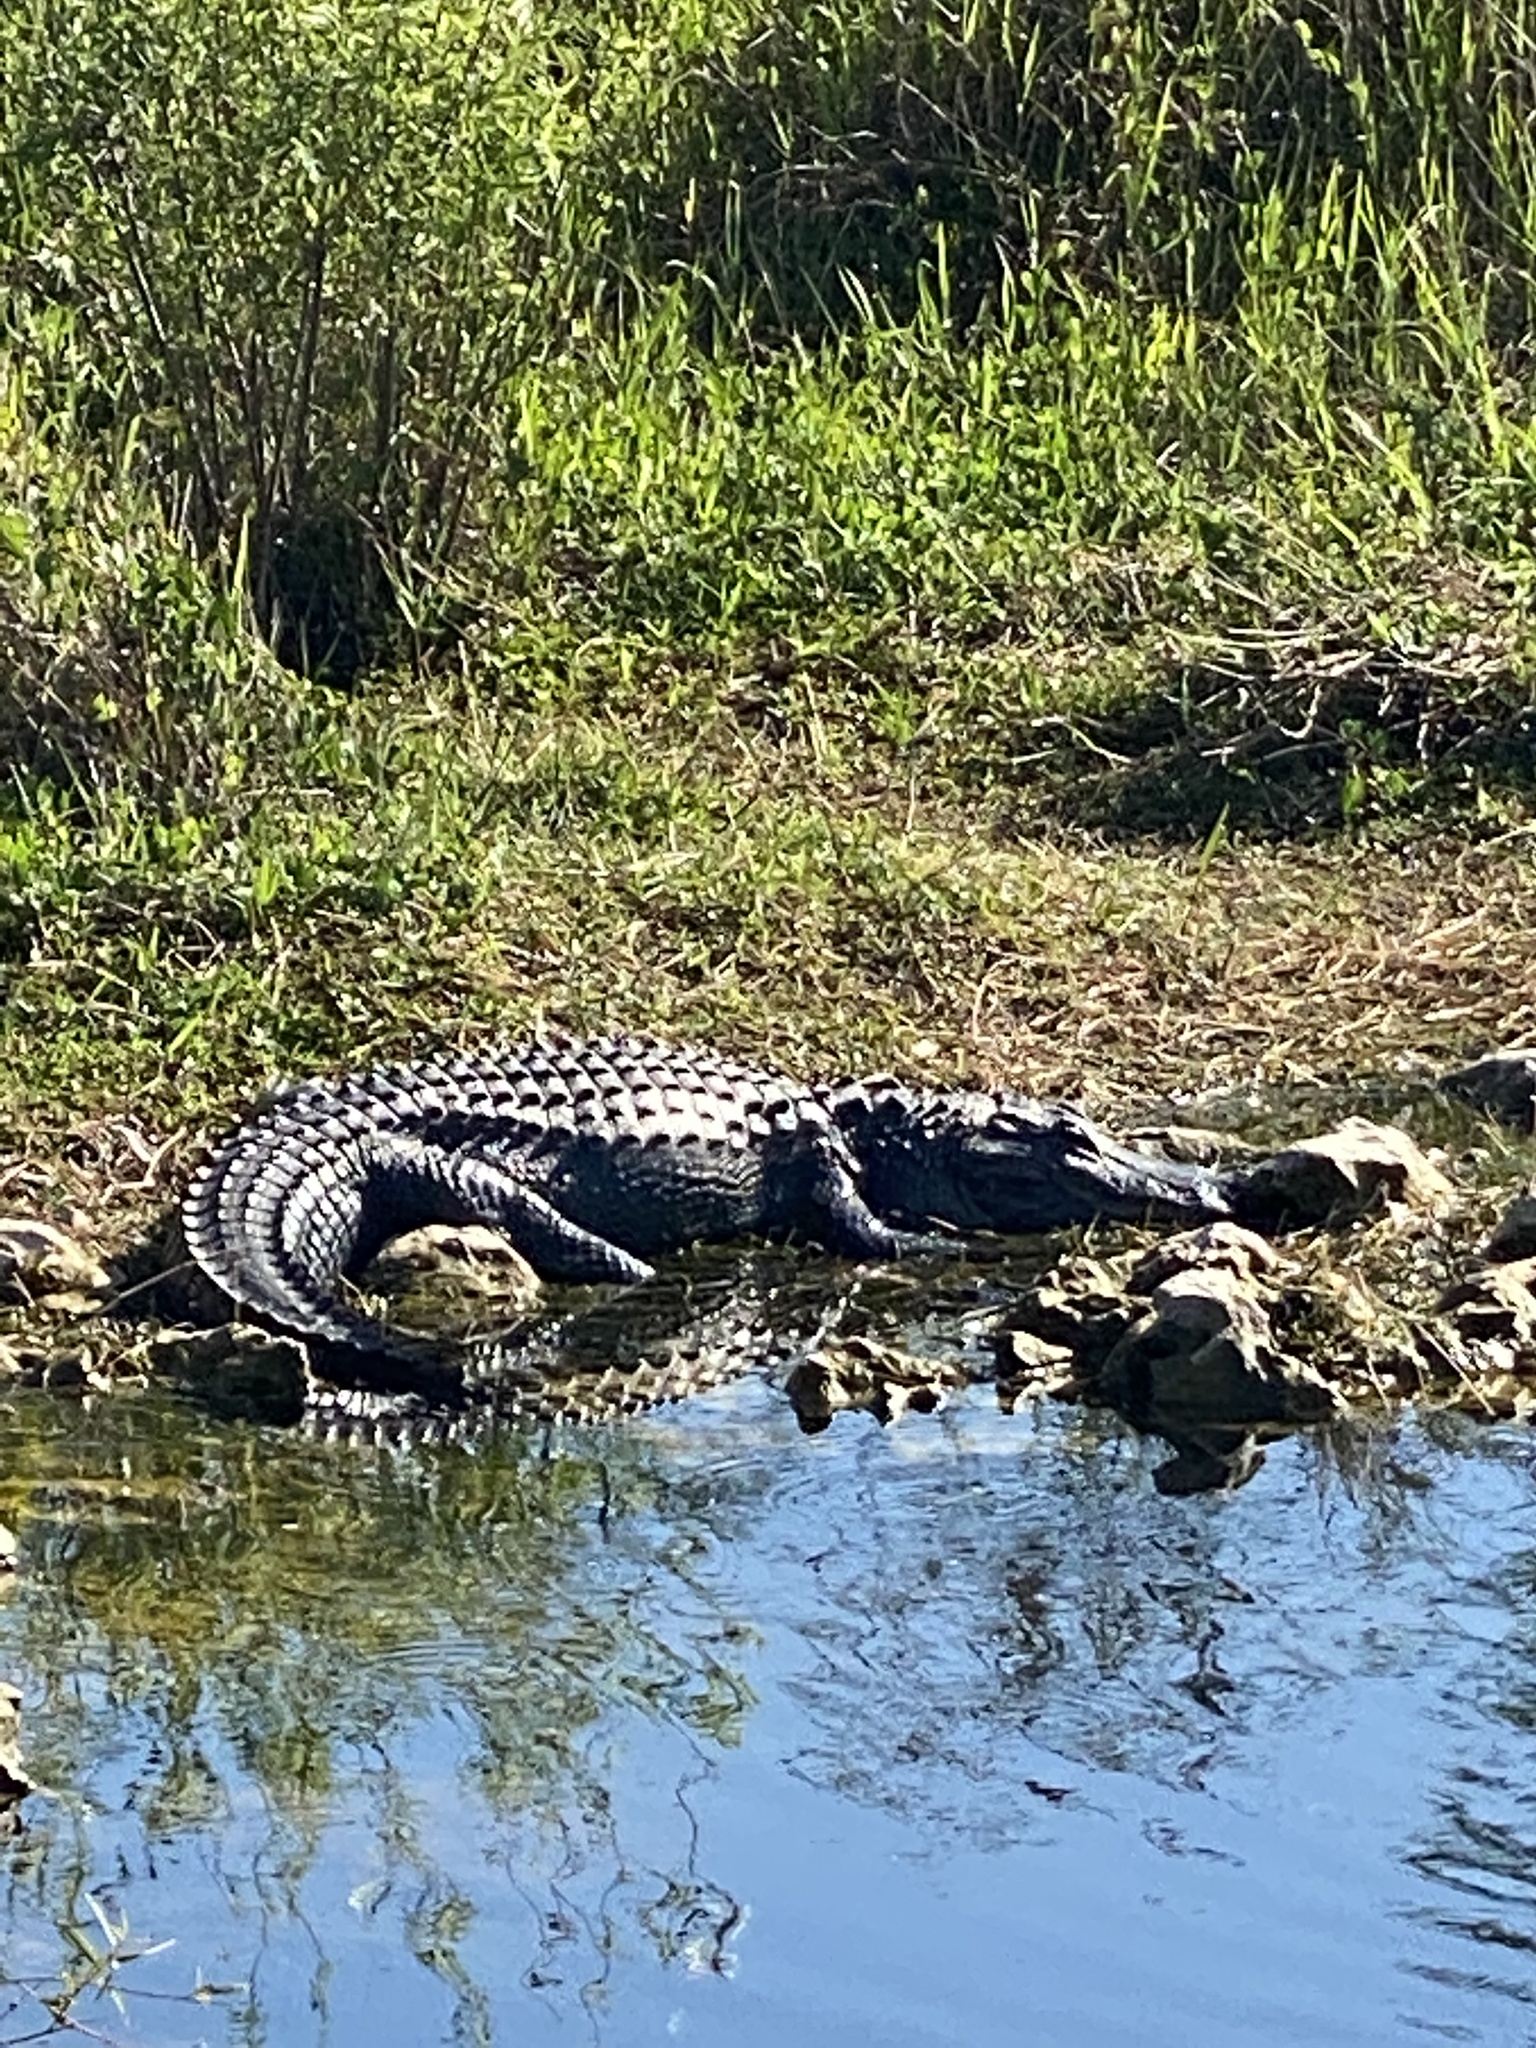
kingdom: Animalia
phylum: Chordata
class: Crocodylia
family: Alligatoridae
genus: Alligator
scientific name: Alligator mississippiensis
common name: American alligator
